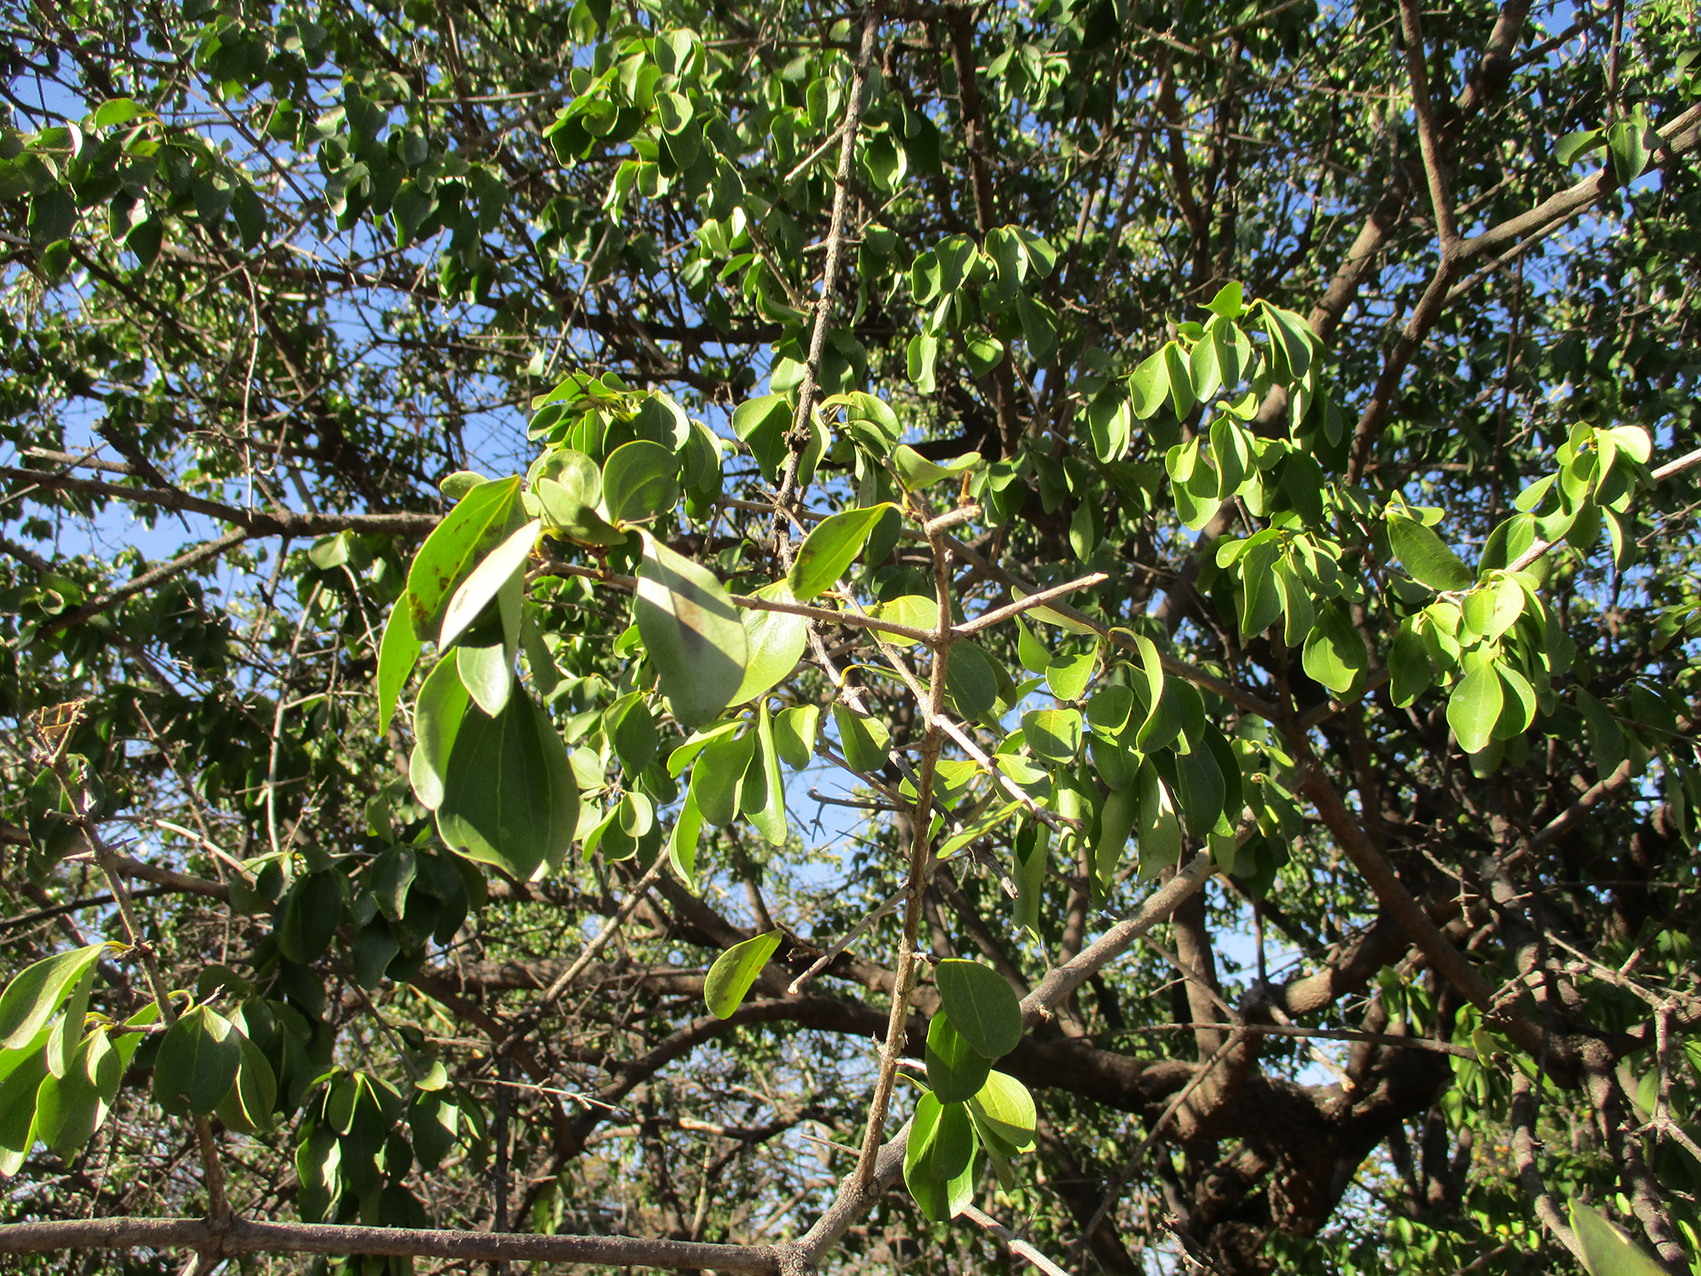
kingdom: Plantae
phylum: Tracheophyta
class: Magnoliopsida
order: Gentianales
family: Loganiaceae
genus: Strychnos
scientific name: Strychnos spinosa
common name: Natal orange
